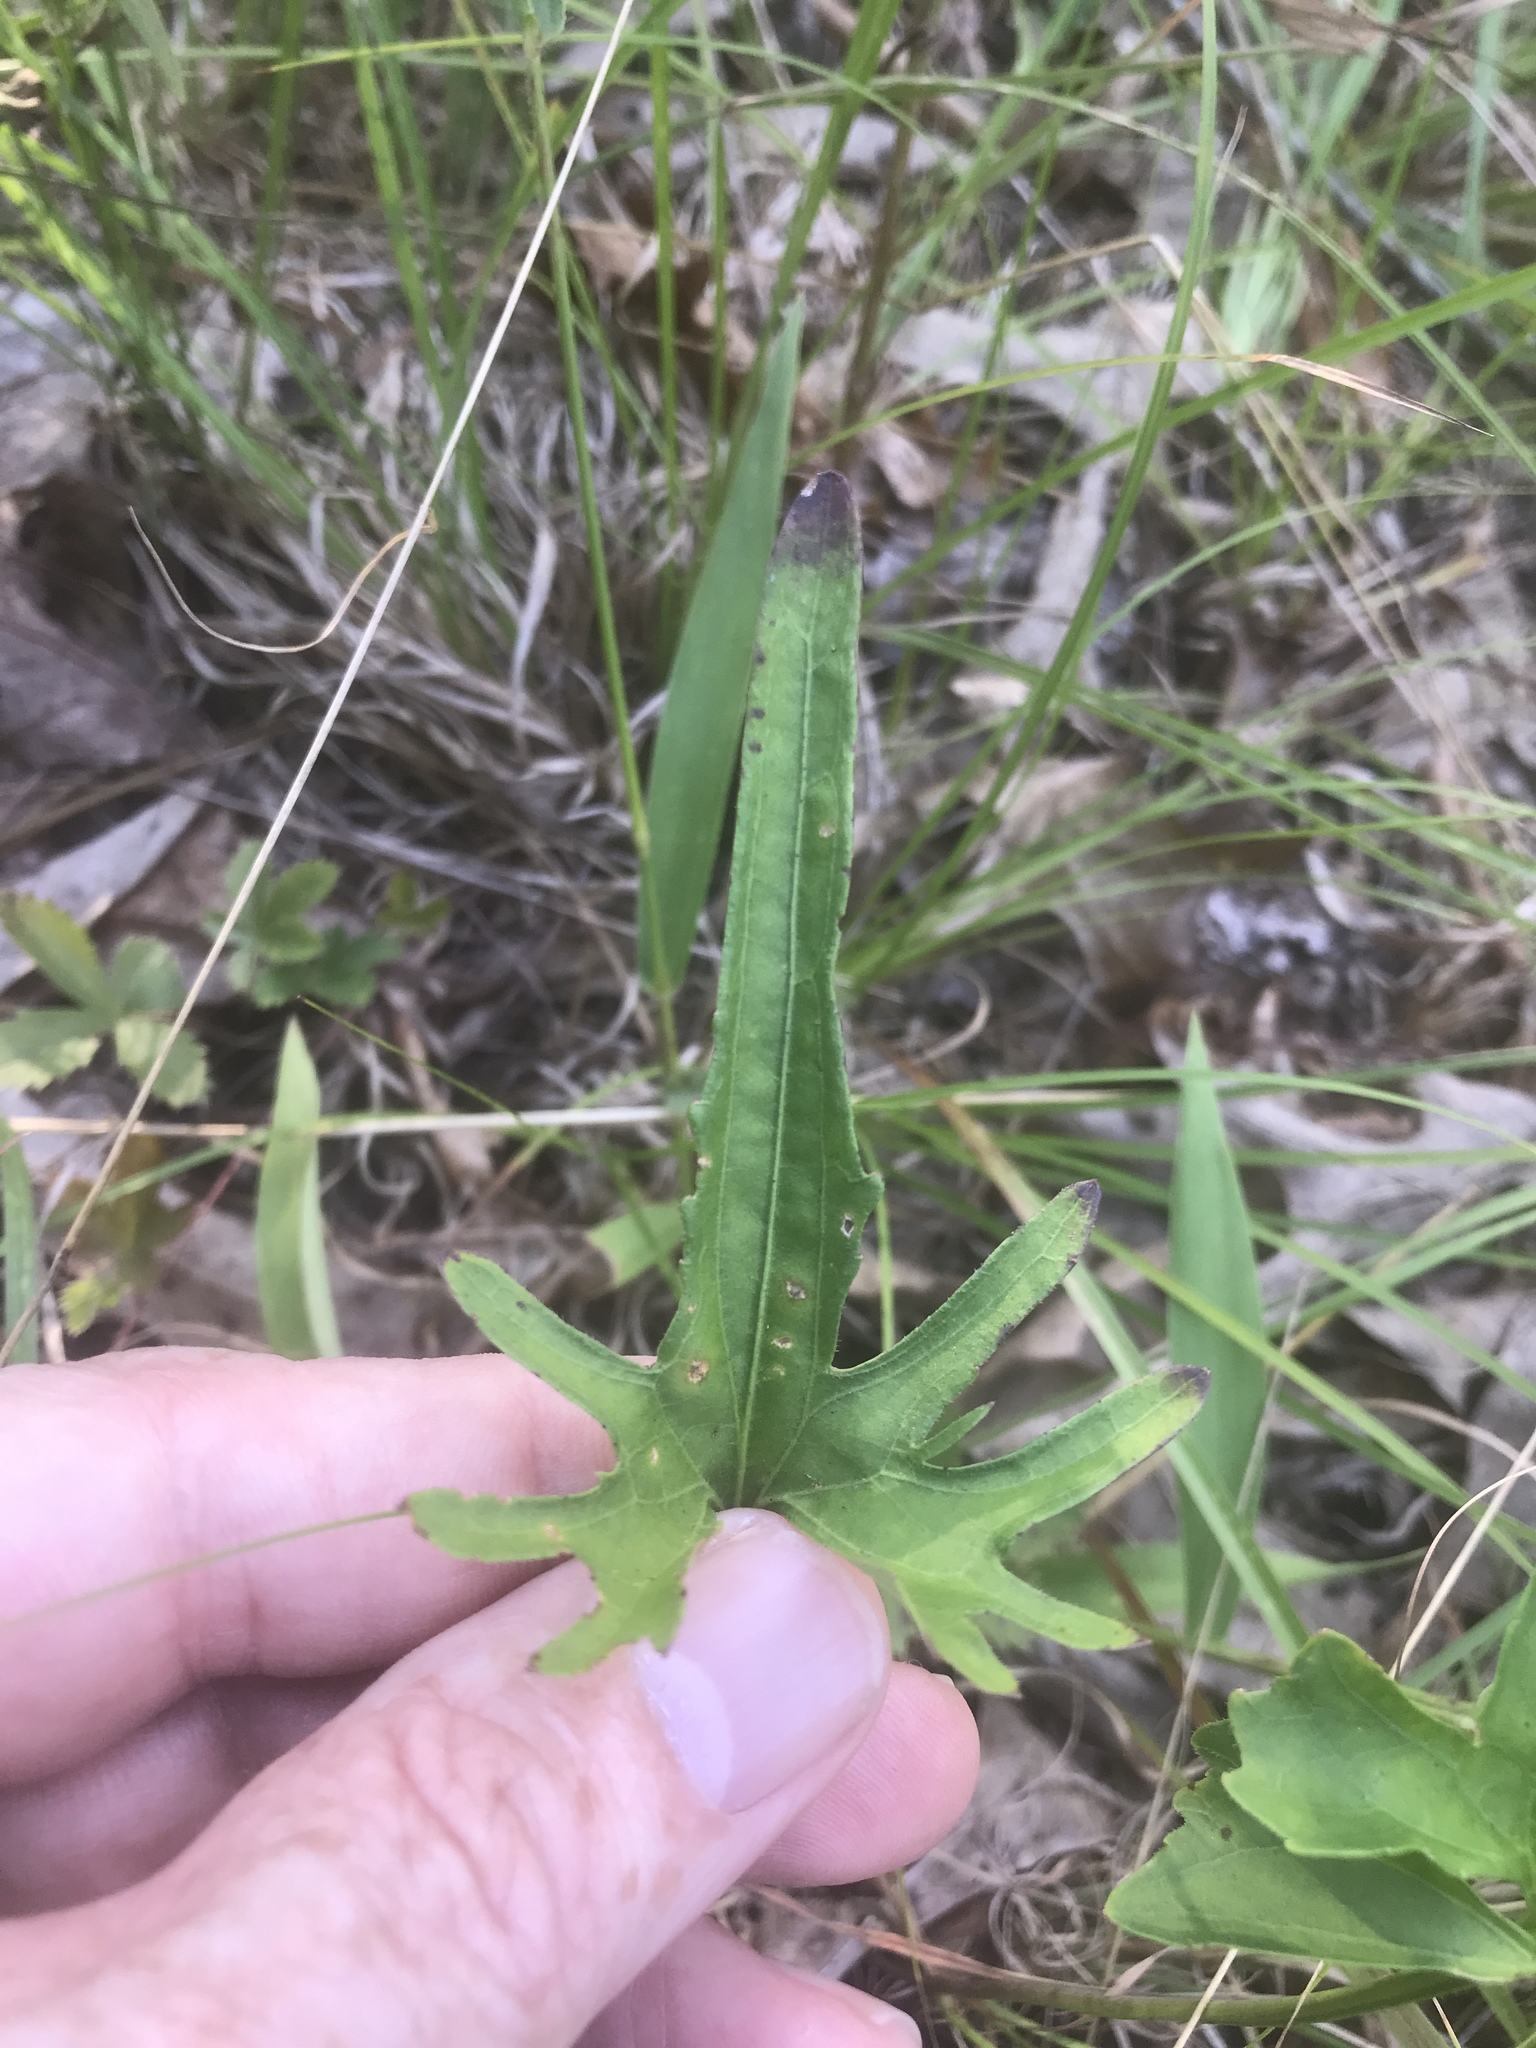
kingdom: Plantae
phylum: Tracheophyta
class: Magnoliopsida
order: Malpighiales
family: Violaceae
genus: Viola
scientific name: Viola palmata
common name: Early blue violet
